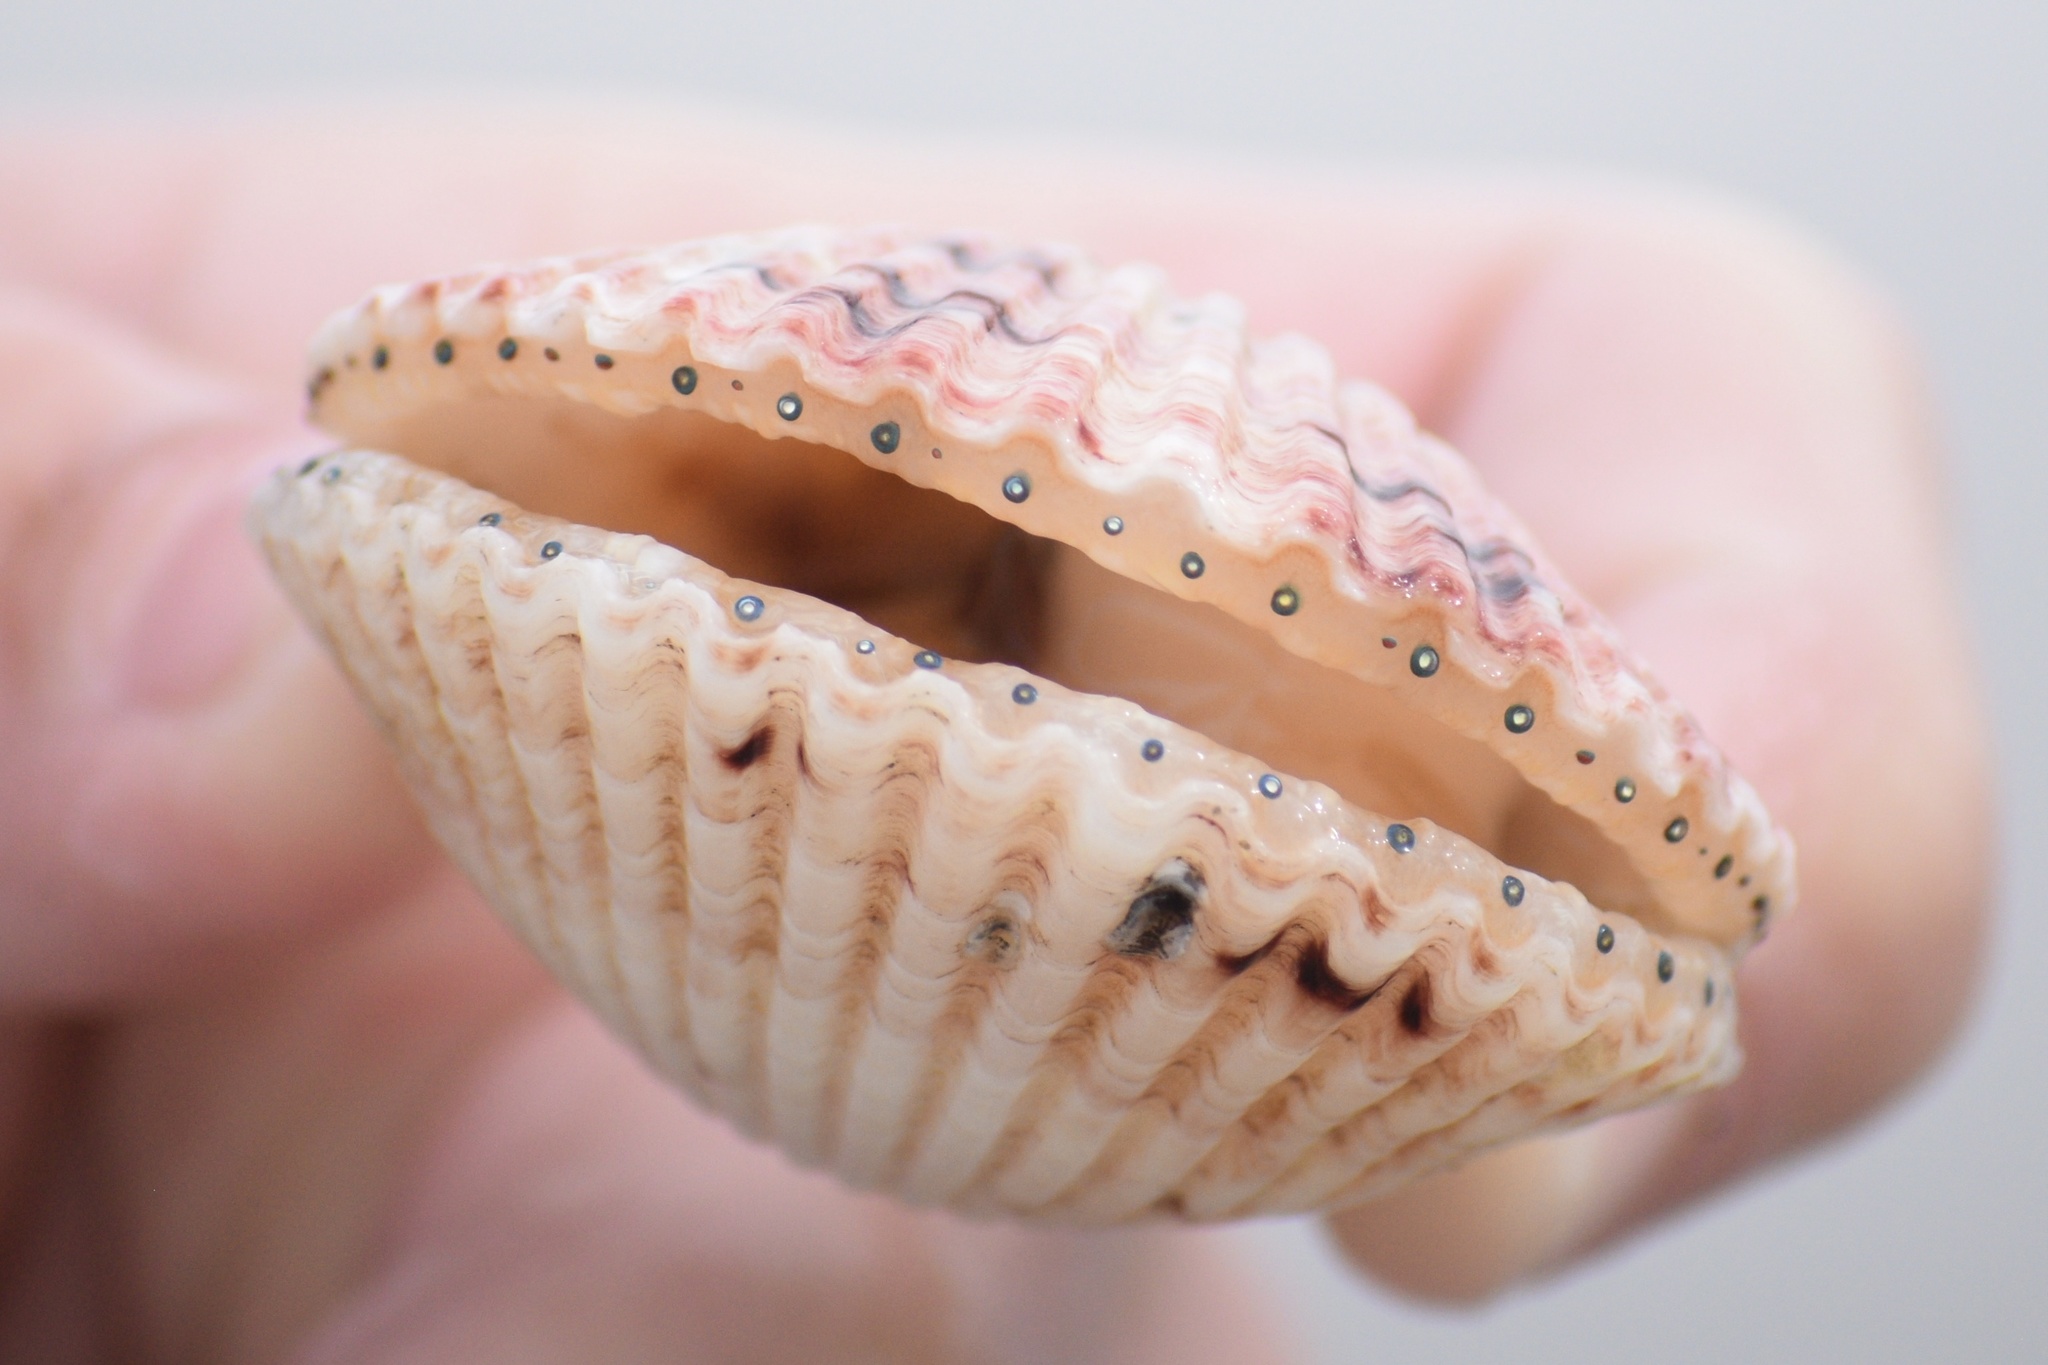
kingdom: Animalia
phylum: Mollusca
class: Bivalvia
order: Pectinida
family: Pectinidae
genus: Argopecten
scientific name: Argopecten gibbus
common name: Atlantic calico scallop
